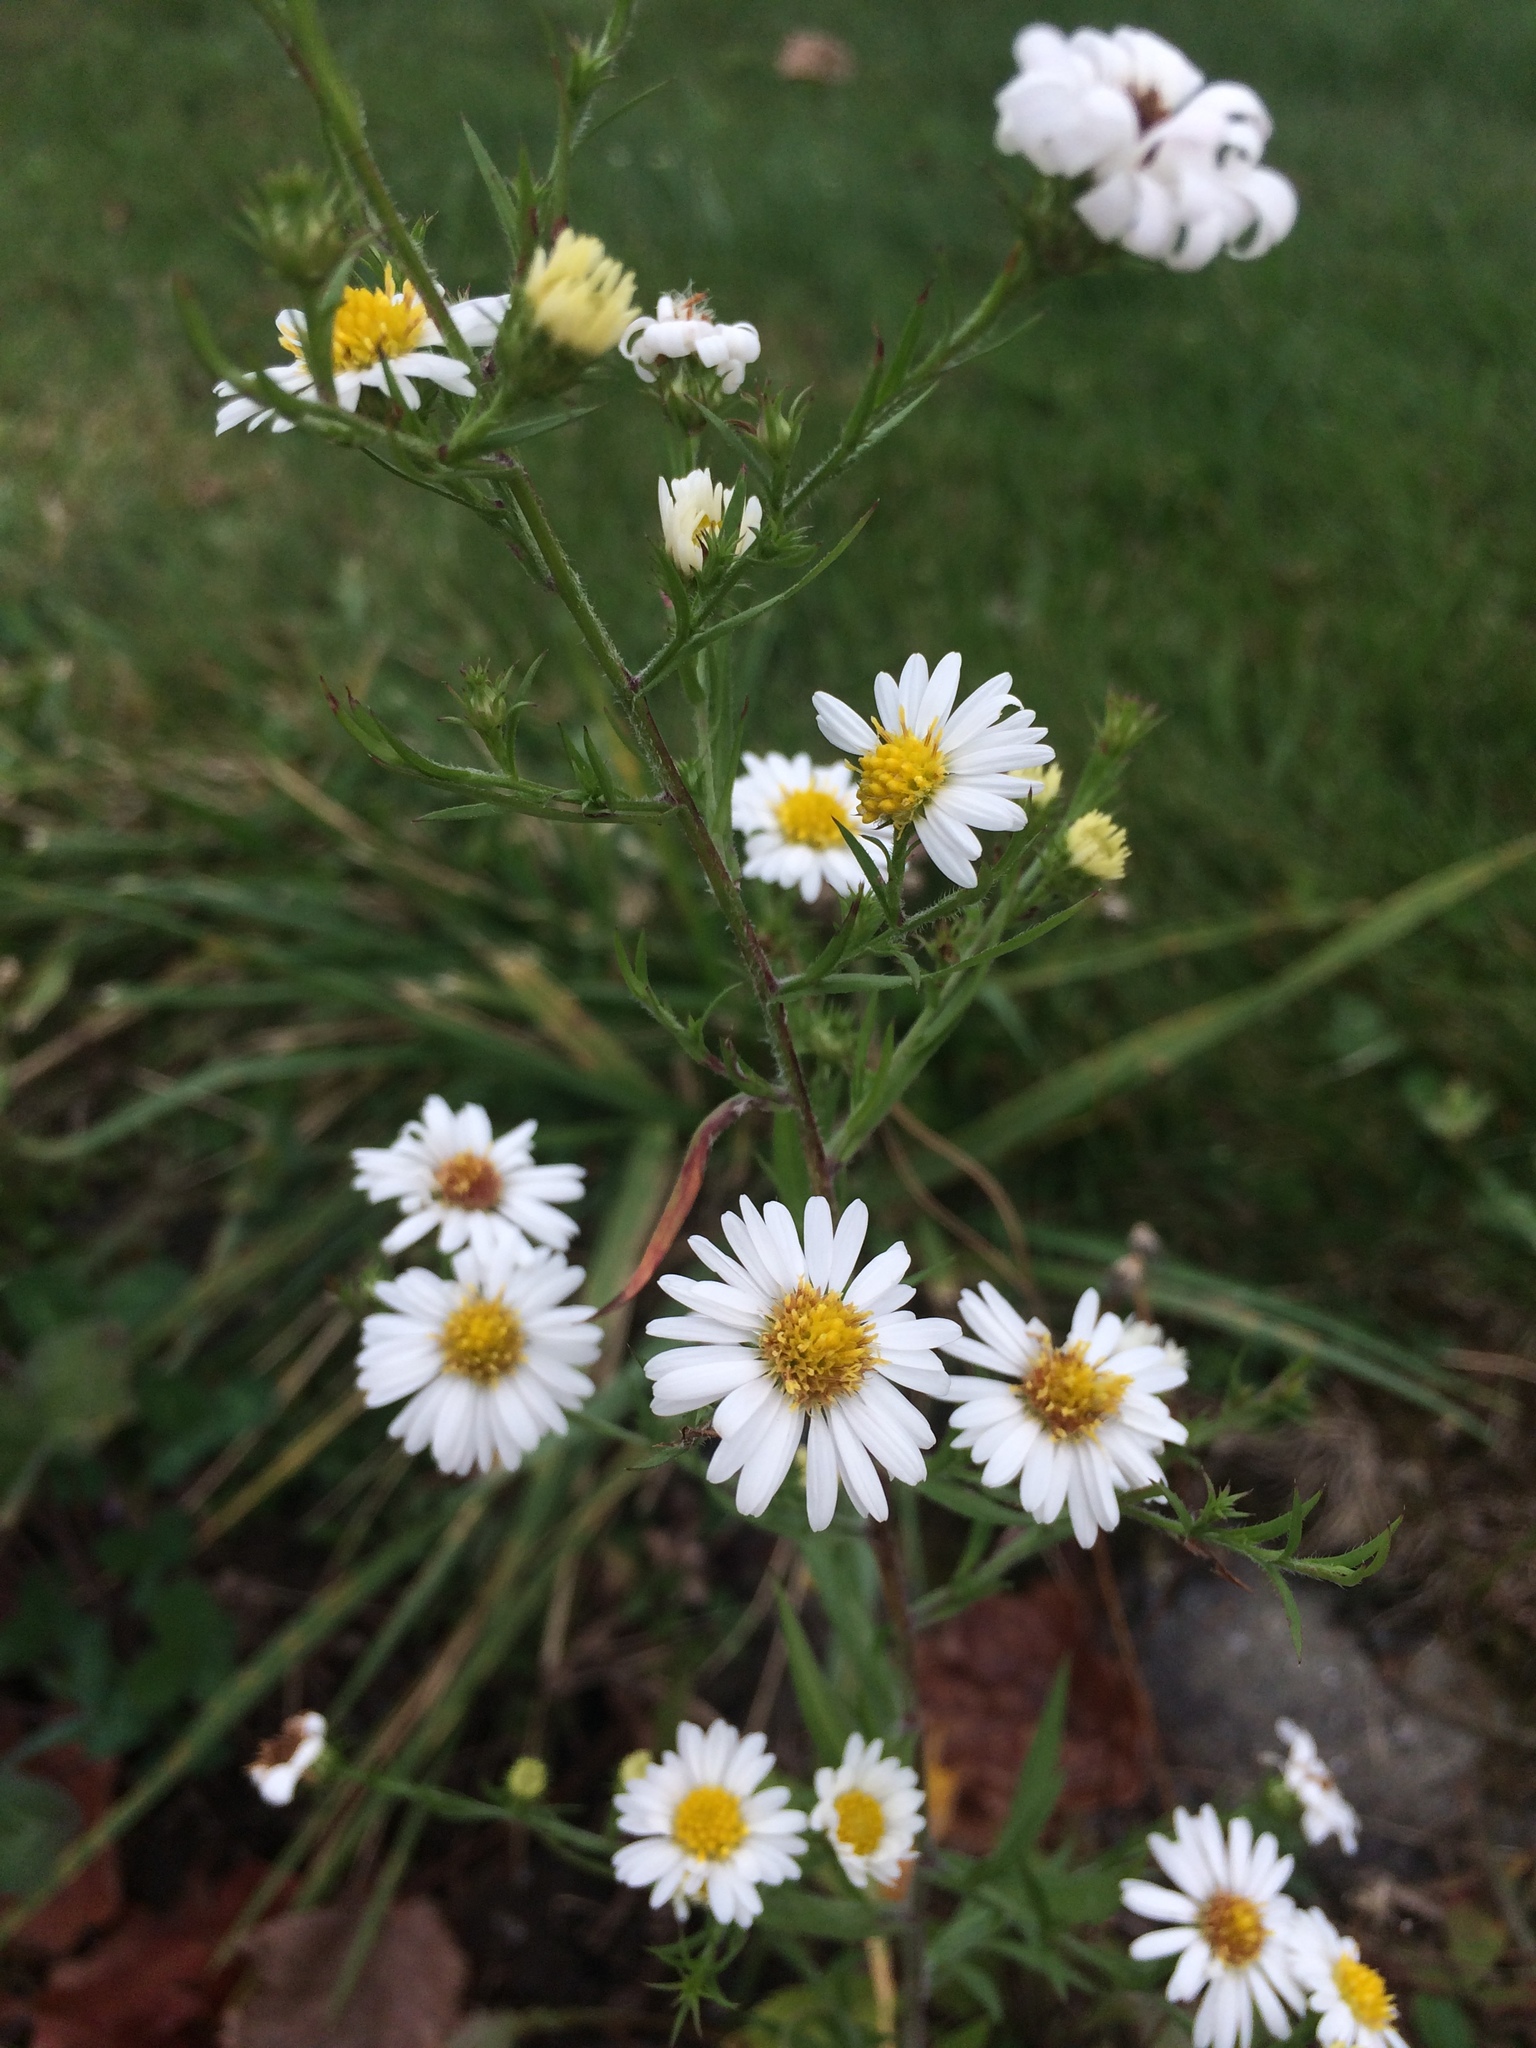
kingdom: Plantae
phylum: Tracheophyta
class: Magnoliopsida
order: Asterales
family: Asteraceae
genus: Symphyotrichum
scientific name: Symphyotrichum pilosum
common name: Awl aster
